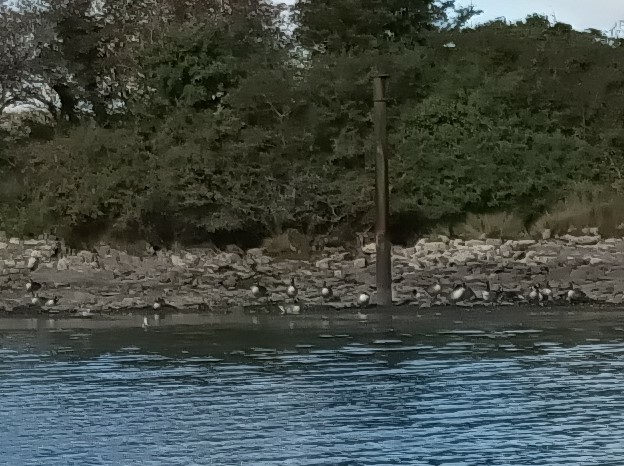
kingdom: Animalia
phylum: Chordata
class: Aves
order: Anseriformes
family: Anatidae
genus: Branta
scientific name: Branta canadensis
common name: Canada goose
